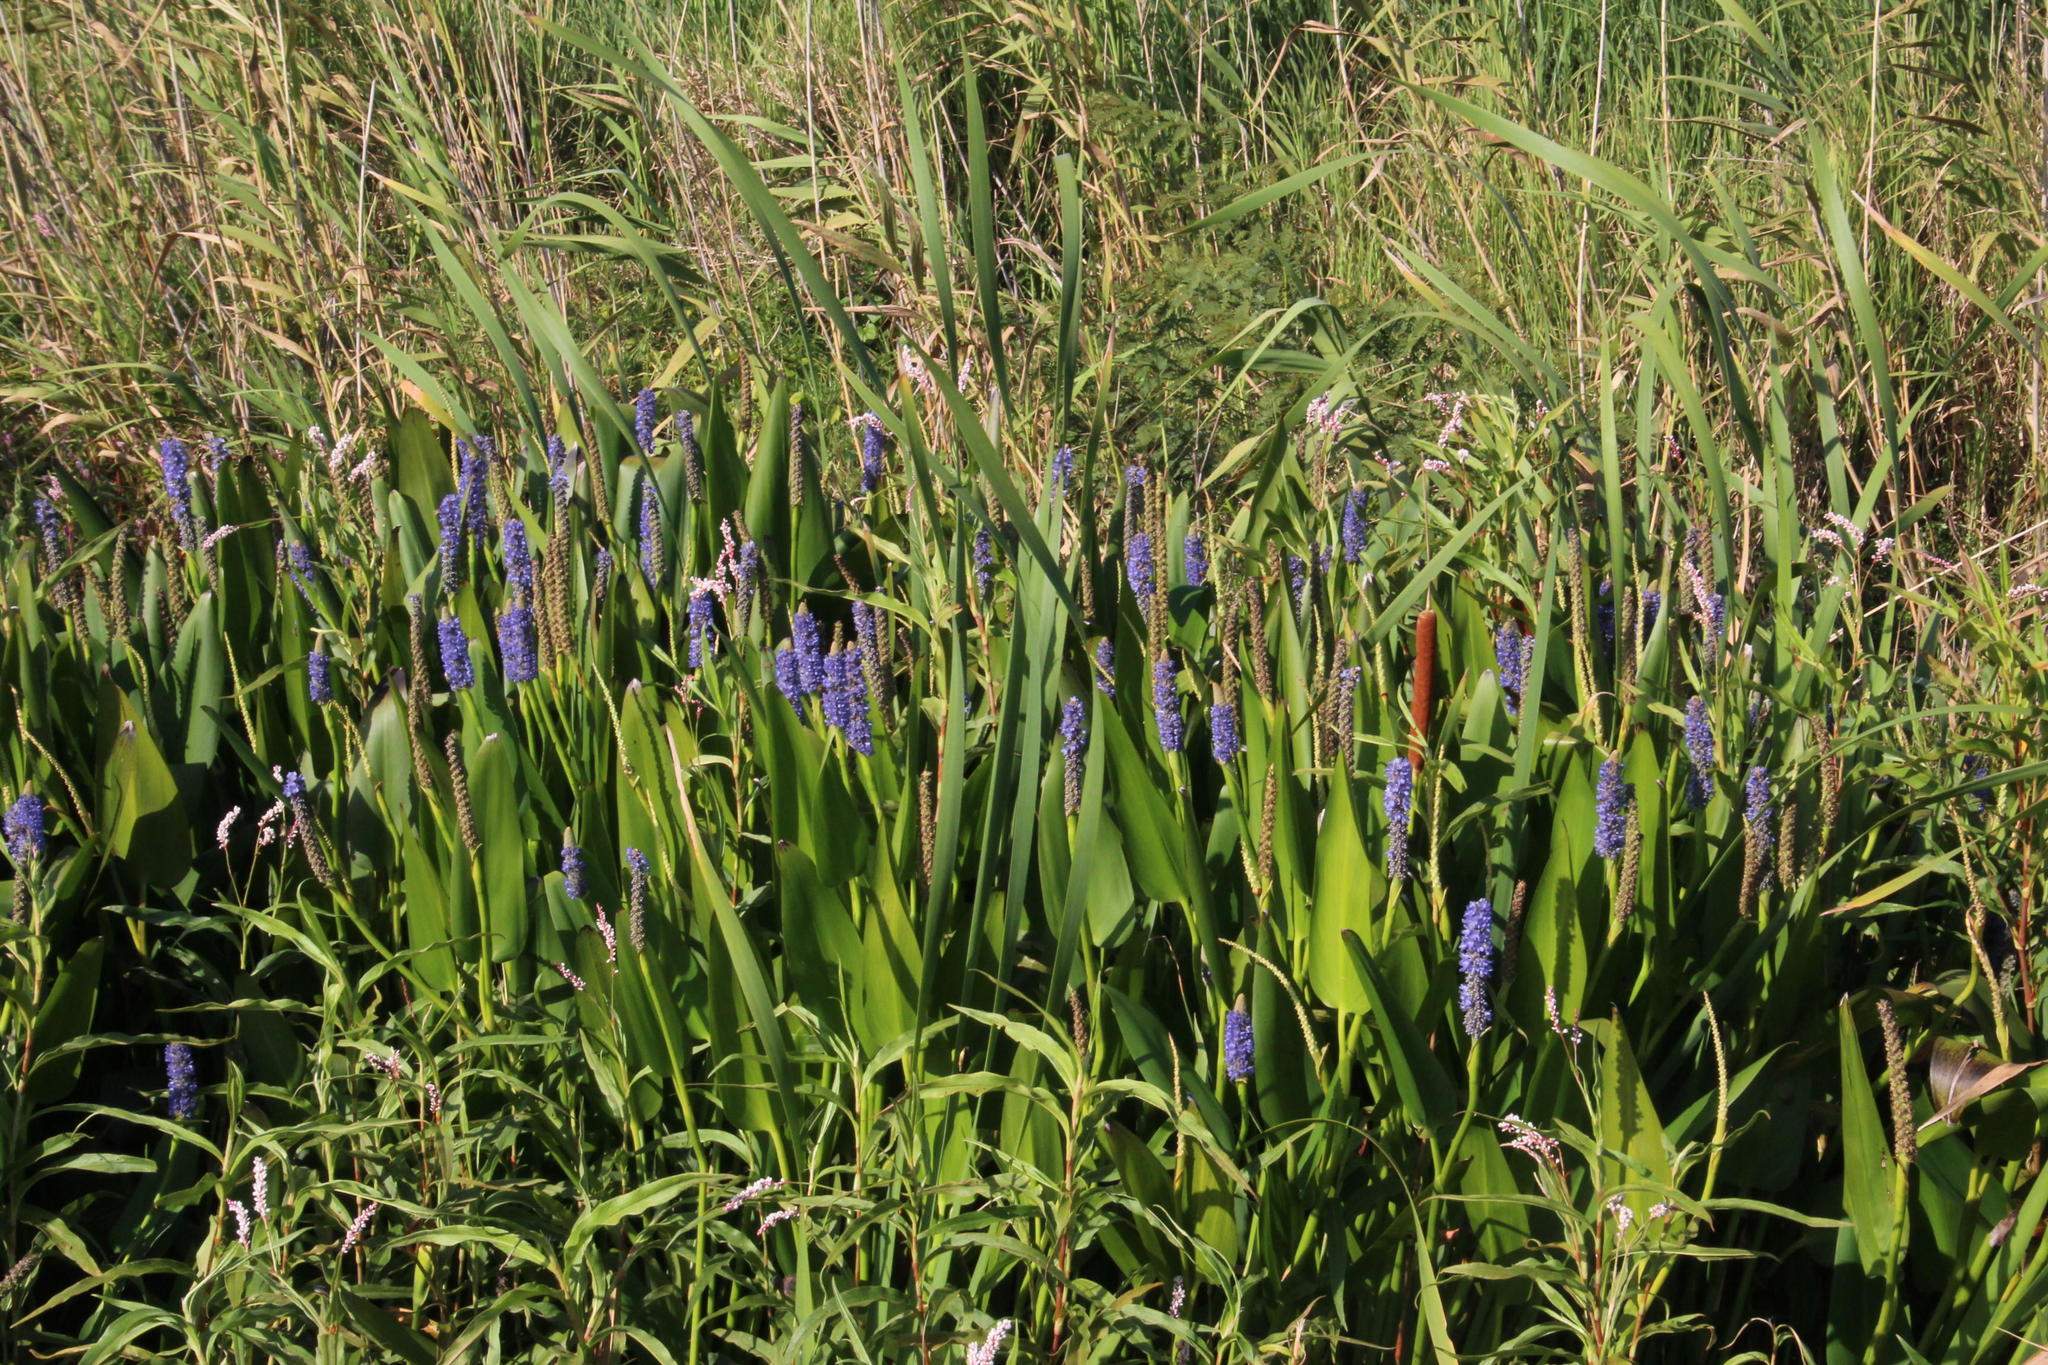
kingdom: Plantae
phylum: Tracheophyta
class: Liliopsida
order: Commelinales
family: Pontederiaceae
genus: Pontederia
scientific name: Pontederia cordata
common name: Pickerelweed
